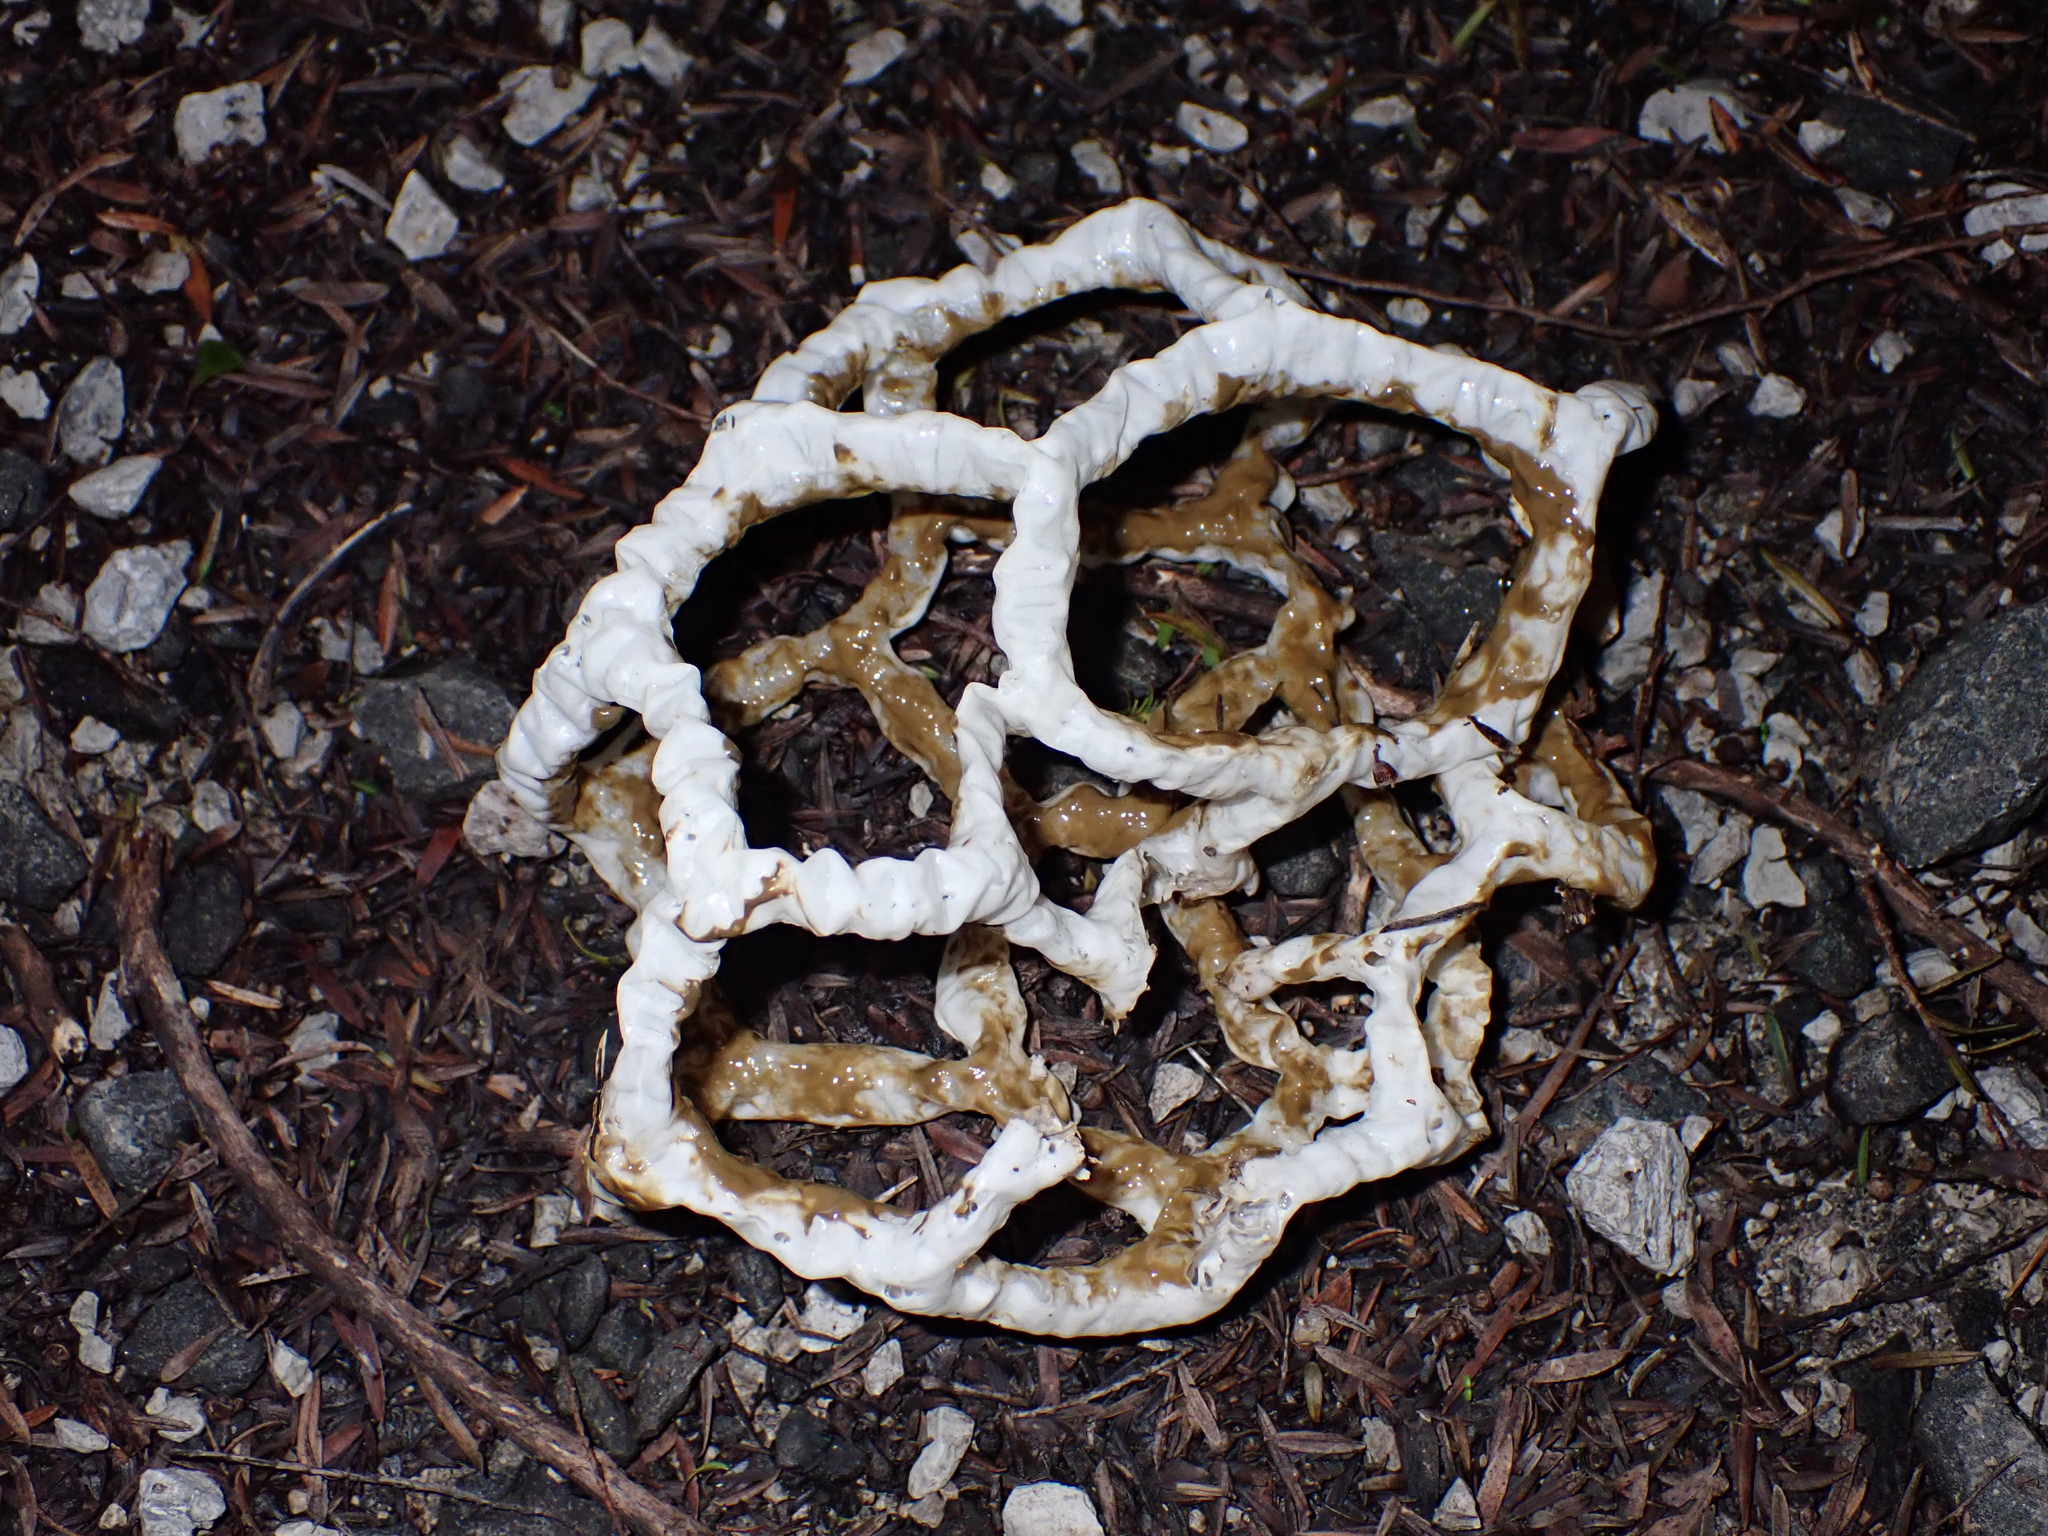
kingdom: Fungi
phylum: Basidiomycota
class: Agaricomycetes
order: Phallales
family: Phallaceae
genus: Ileodictyon
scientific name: Ileodictyon cibarium
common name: Basket fungus
